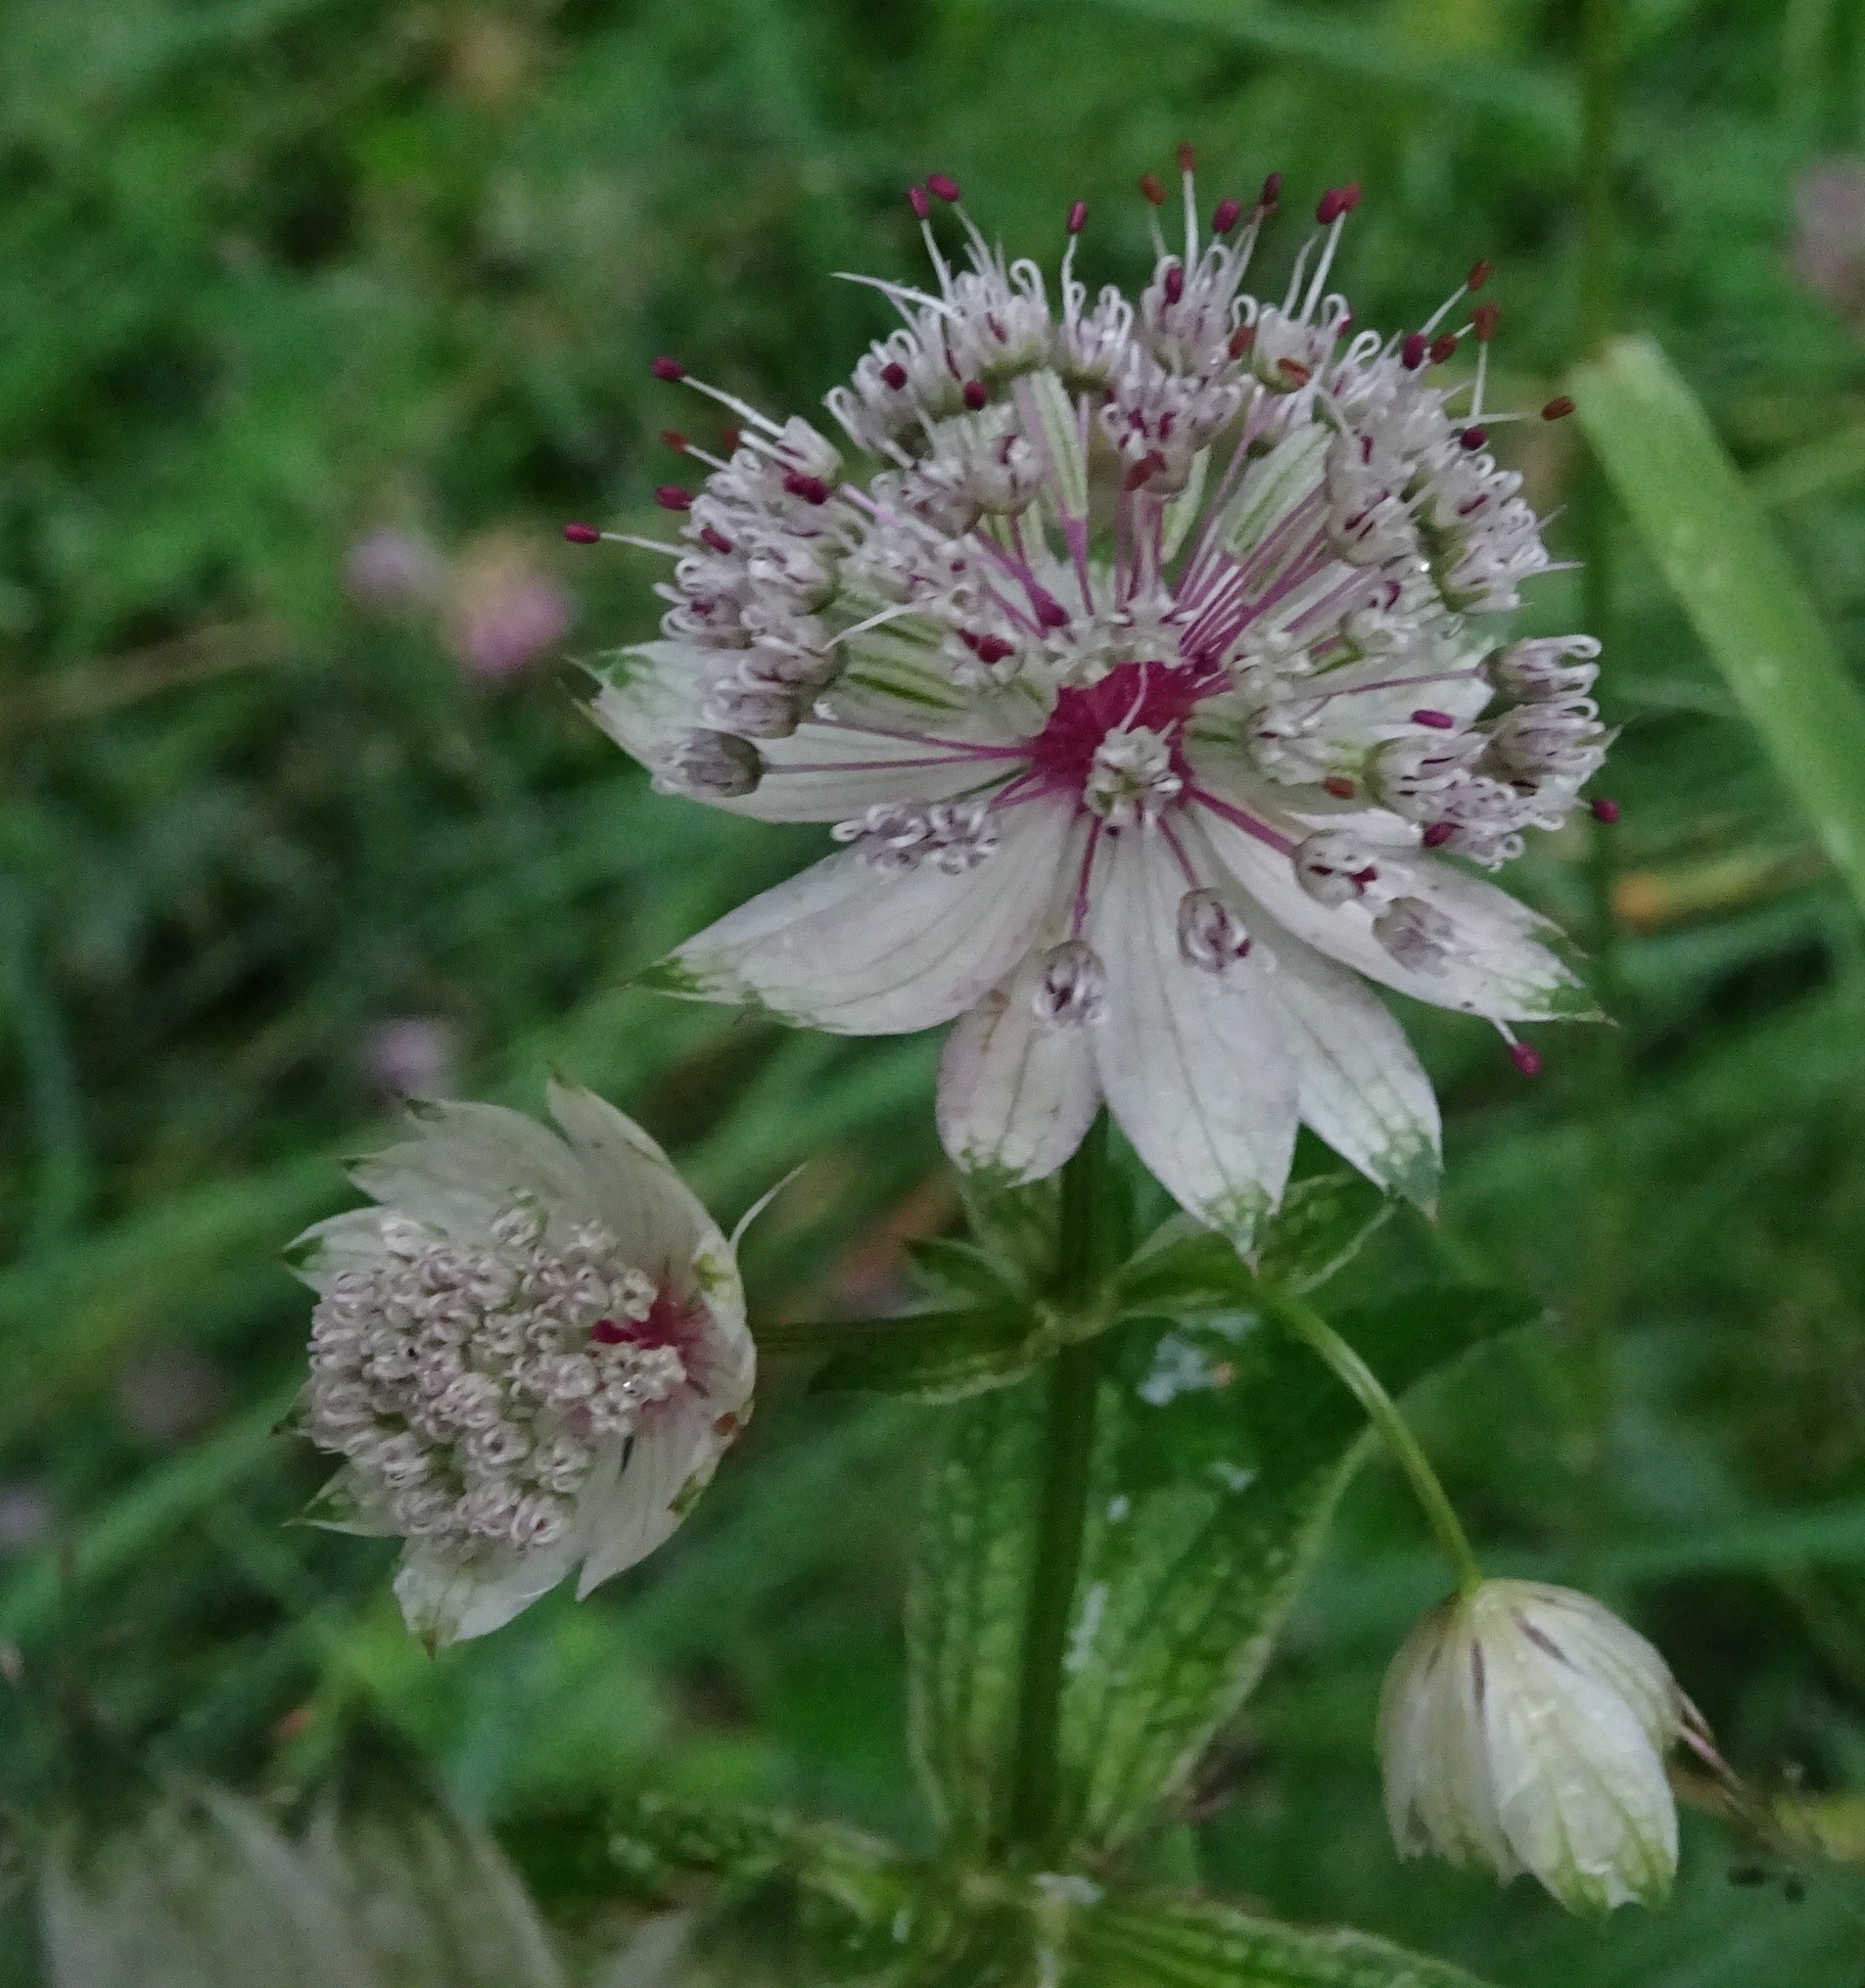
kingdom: Plantae
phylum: Tracheophyta
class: Magnoliopsida
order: Apiales
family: Apiaceae
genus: Astrantia
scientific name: Astrantia major
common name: Greater masterwort
